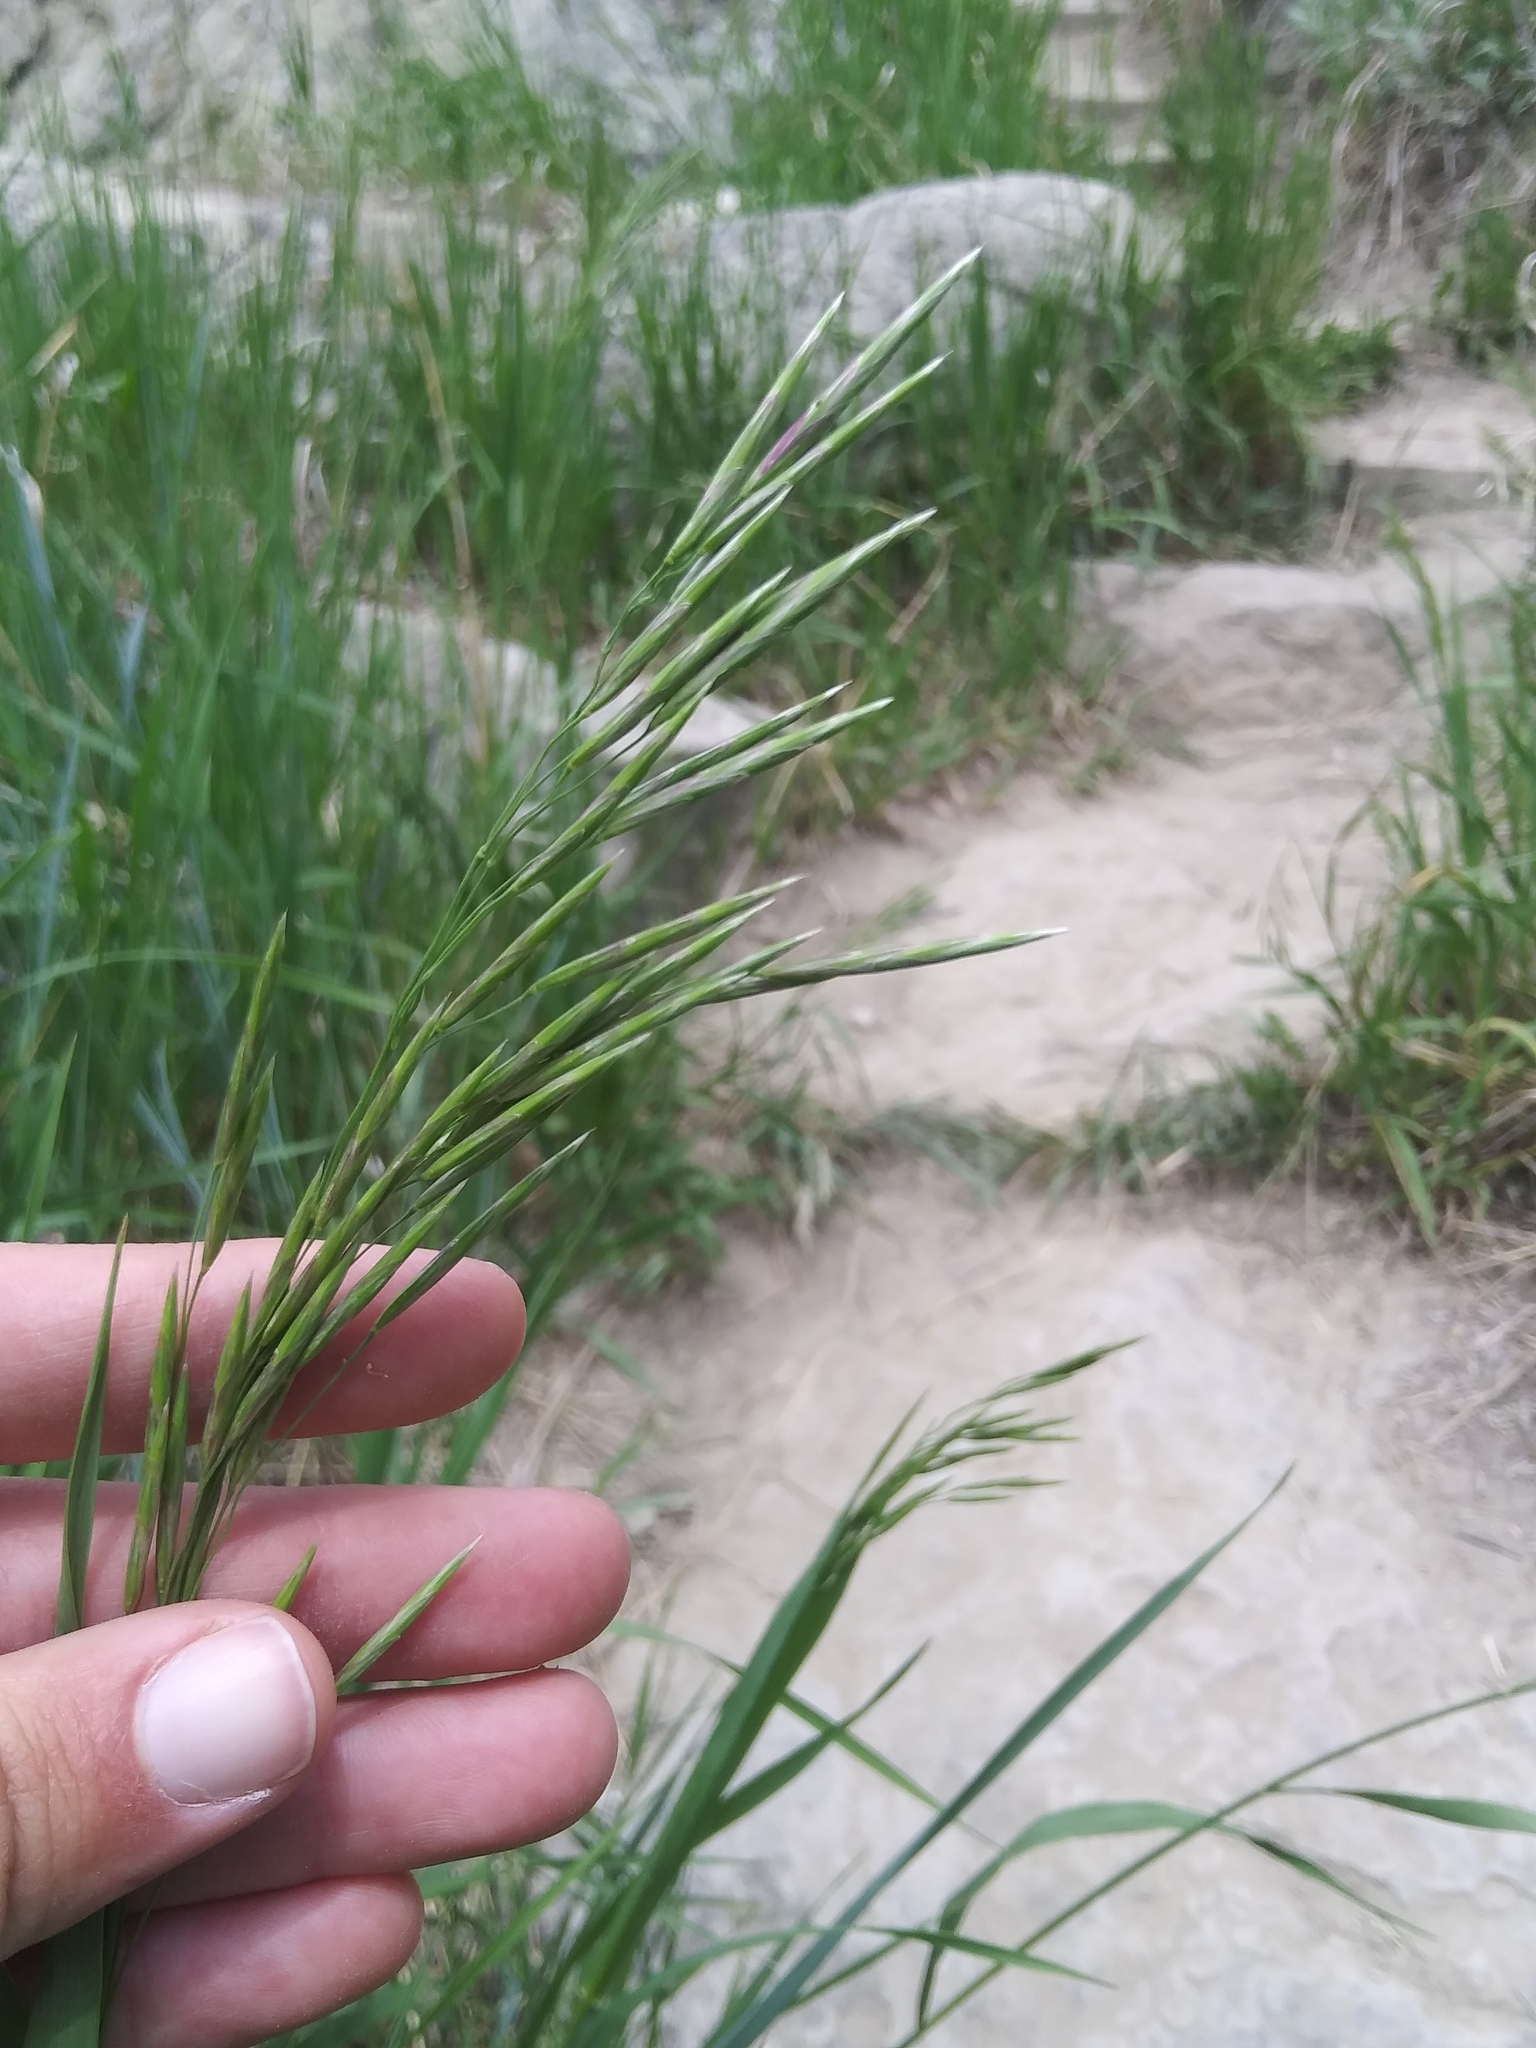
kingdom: Plantae
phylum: Tracheophyta
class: Liliopsida
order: Poales
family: Poaceae
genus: Bromus
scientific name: Bromus inermis
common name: Smooth brome
